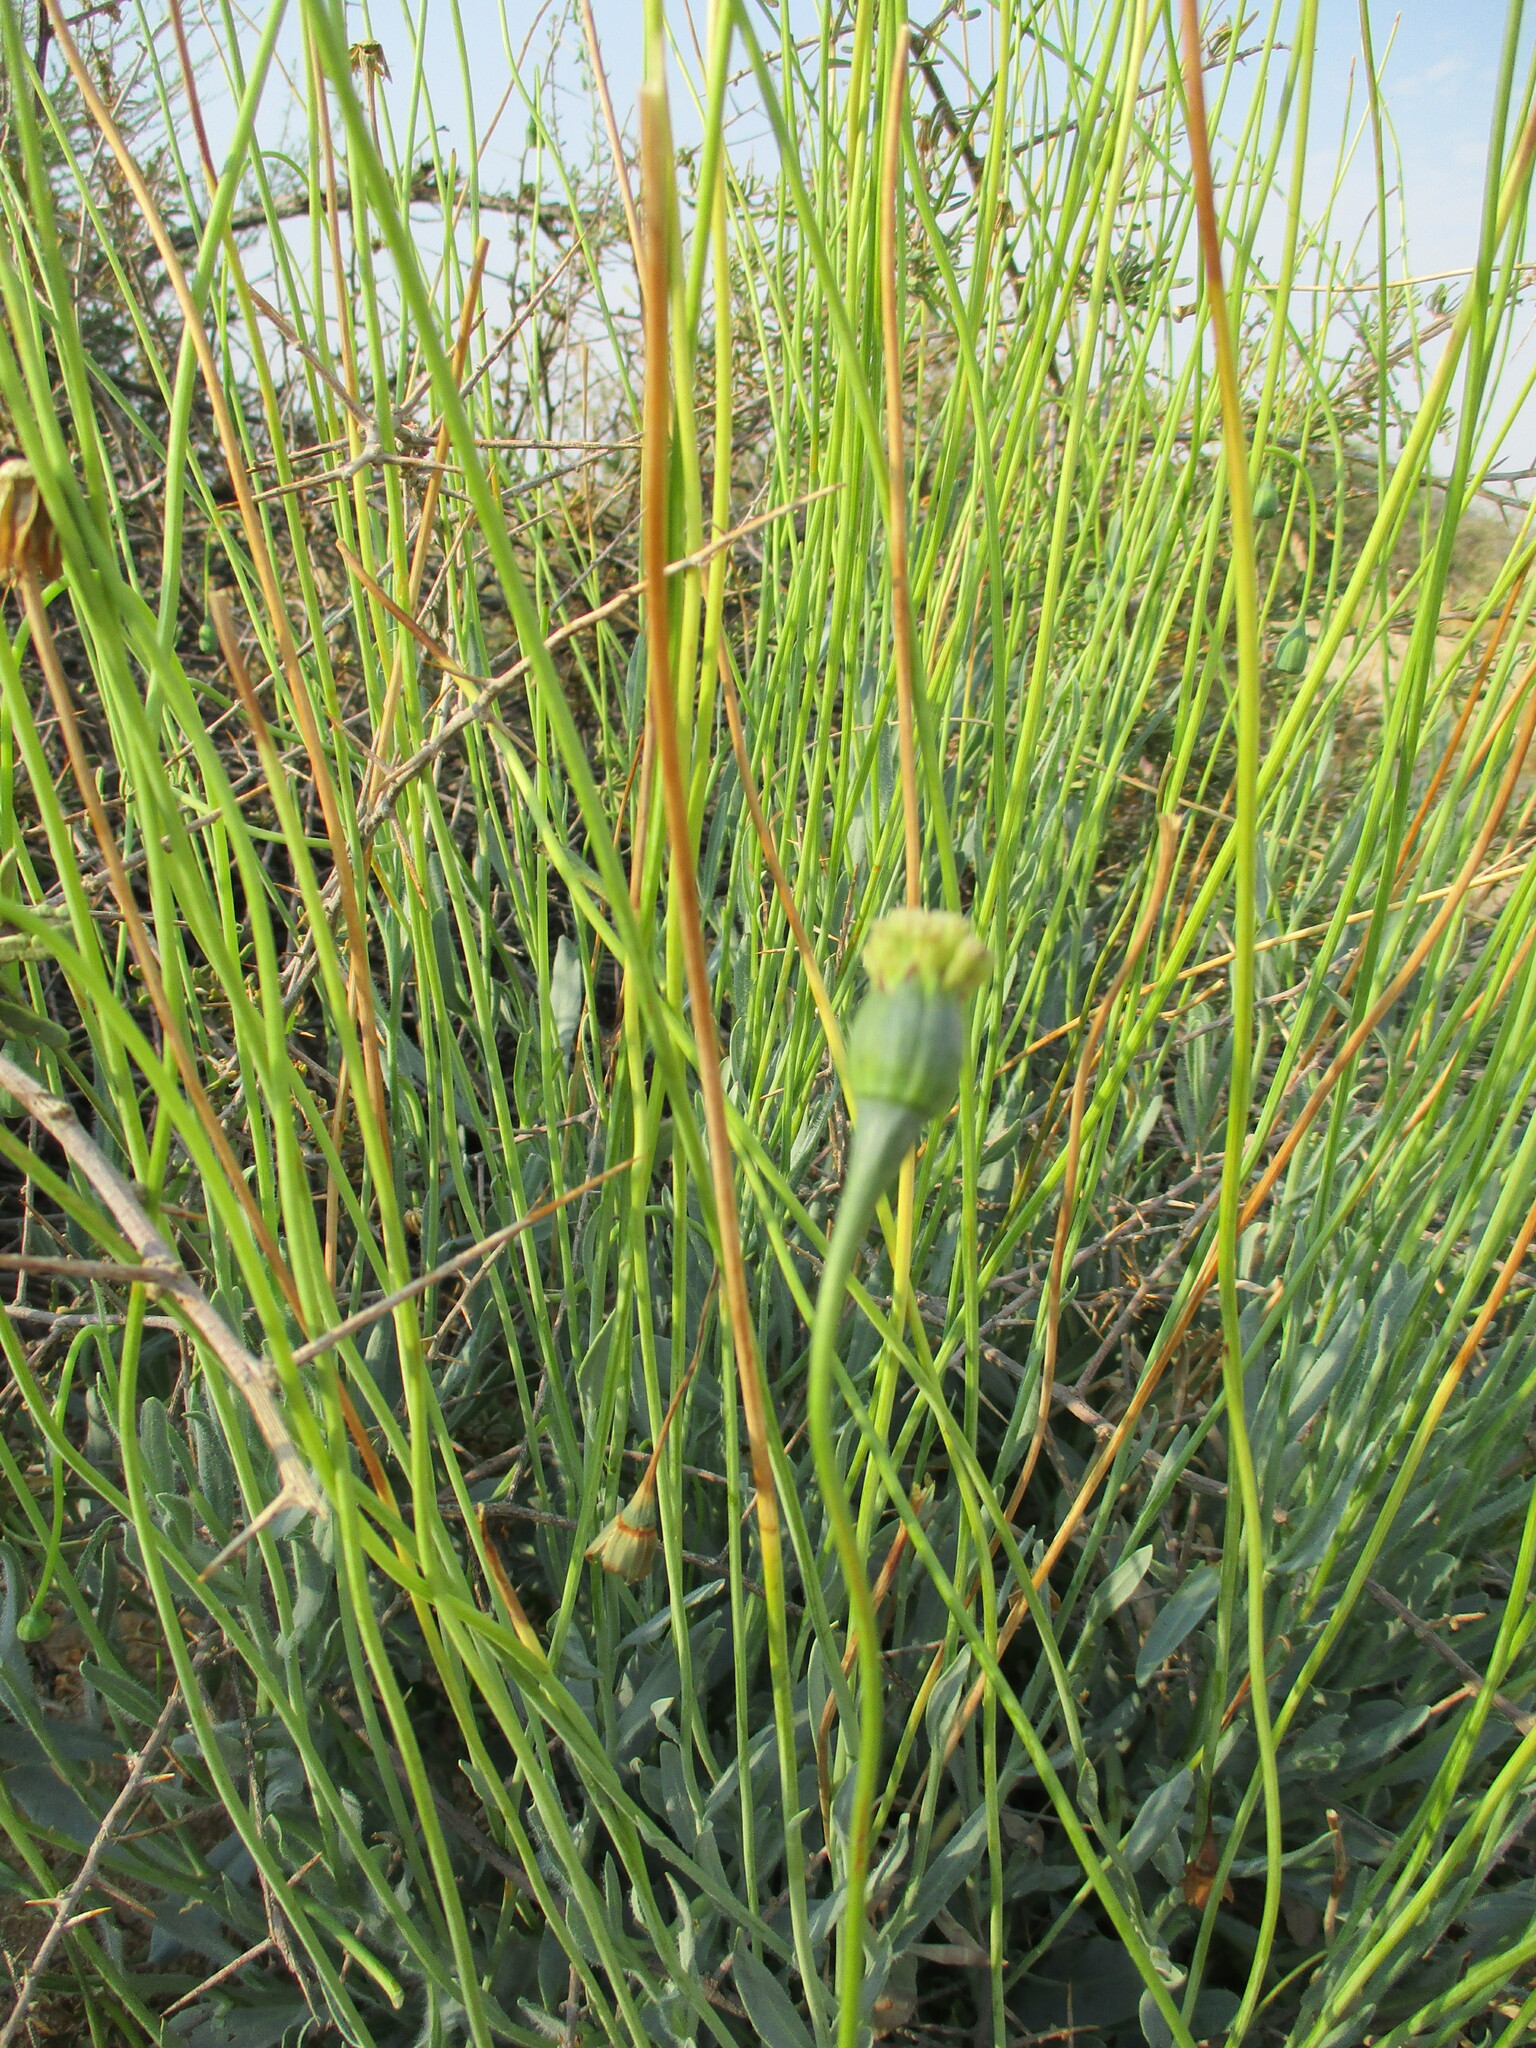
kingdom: Plantae
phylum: Tracheophyta
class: Magnoliopsida
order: Asterales
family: Asteraceae
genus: Emilia
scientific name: Emilia marlothiana
